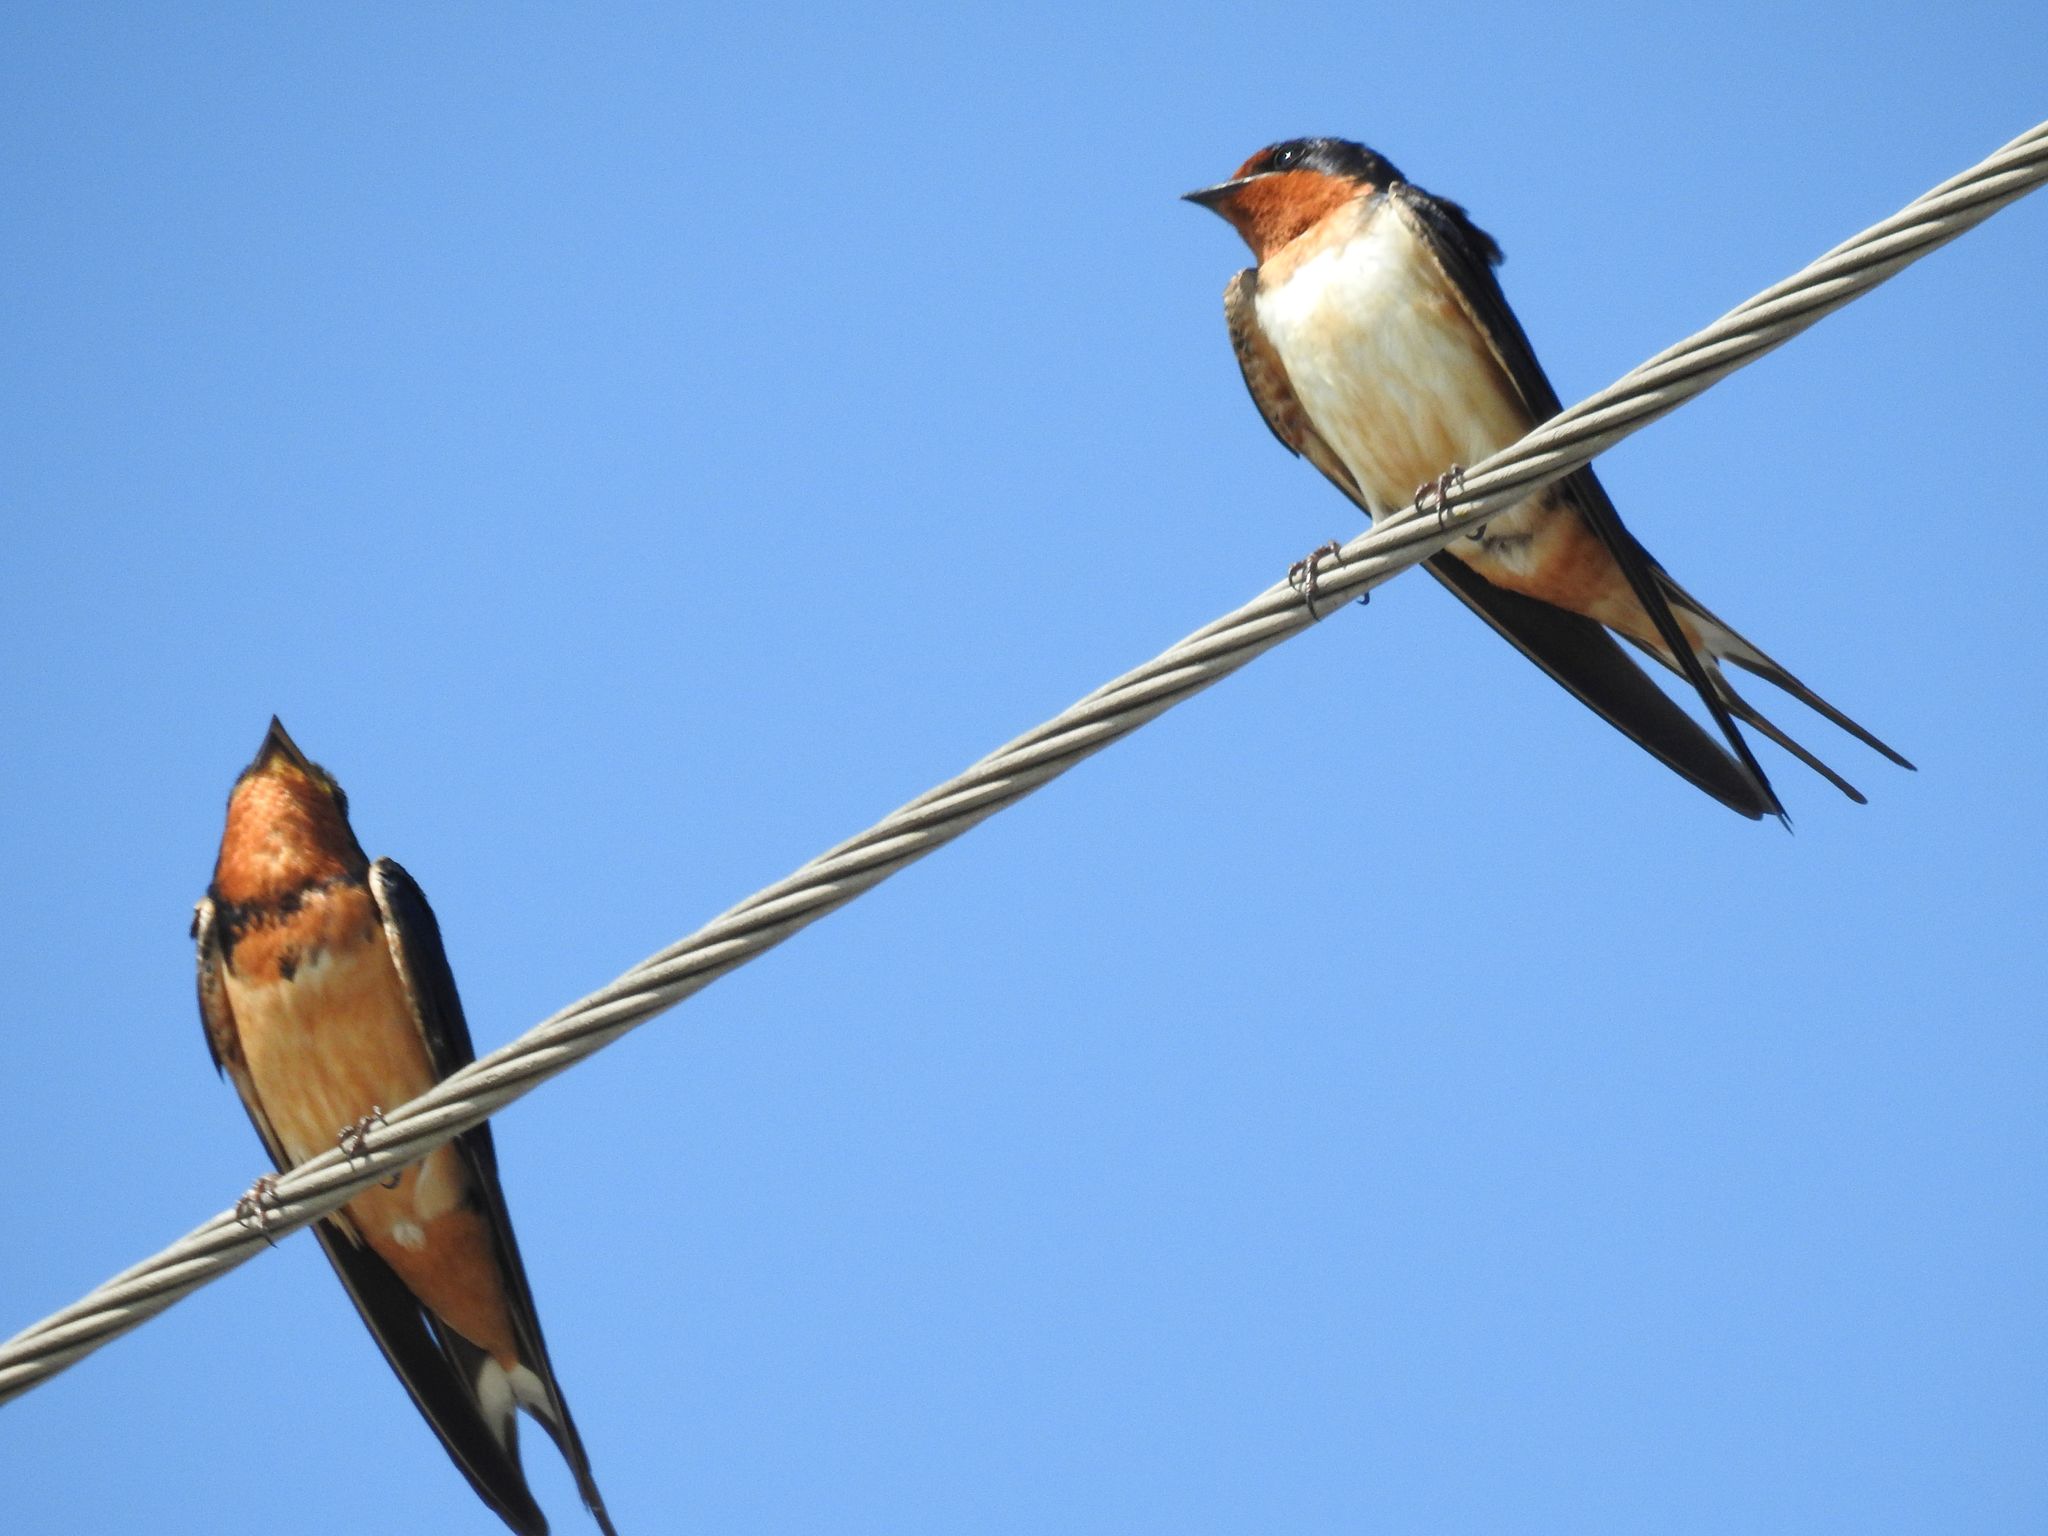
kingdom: Animalia
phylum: Chordata
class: Aves
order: Passeriformes
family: Hirundinidae
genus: Hirundo
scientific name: Hirundo rustica
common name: Barn swallow
